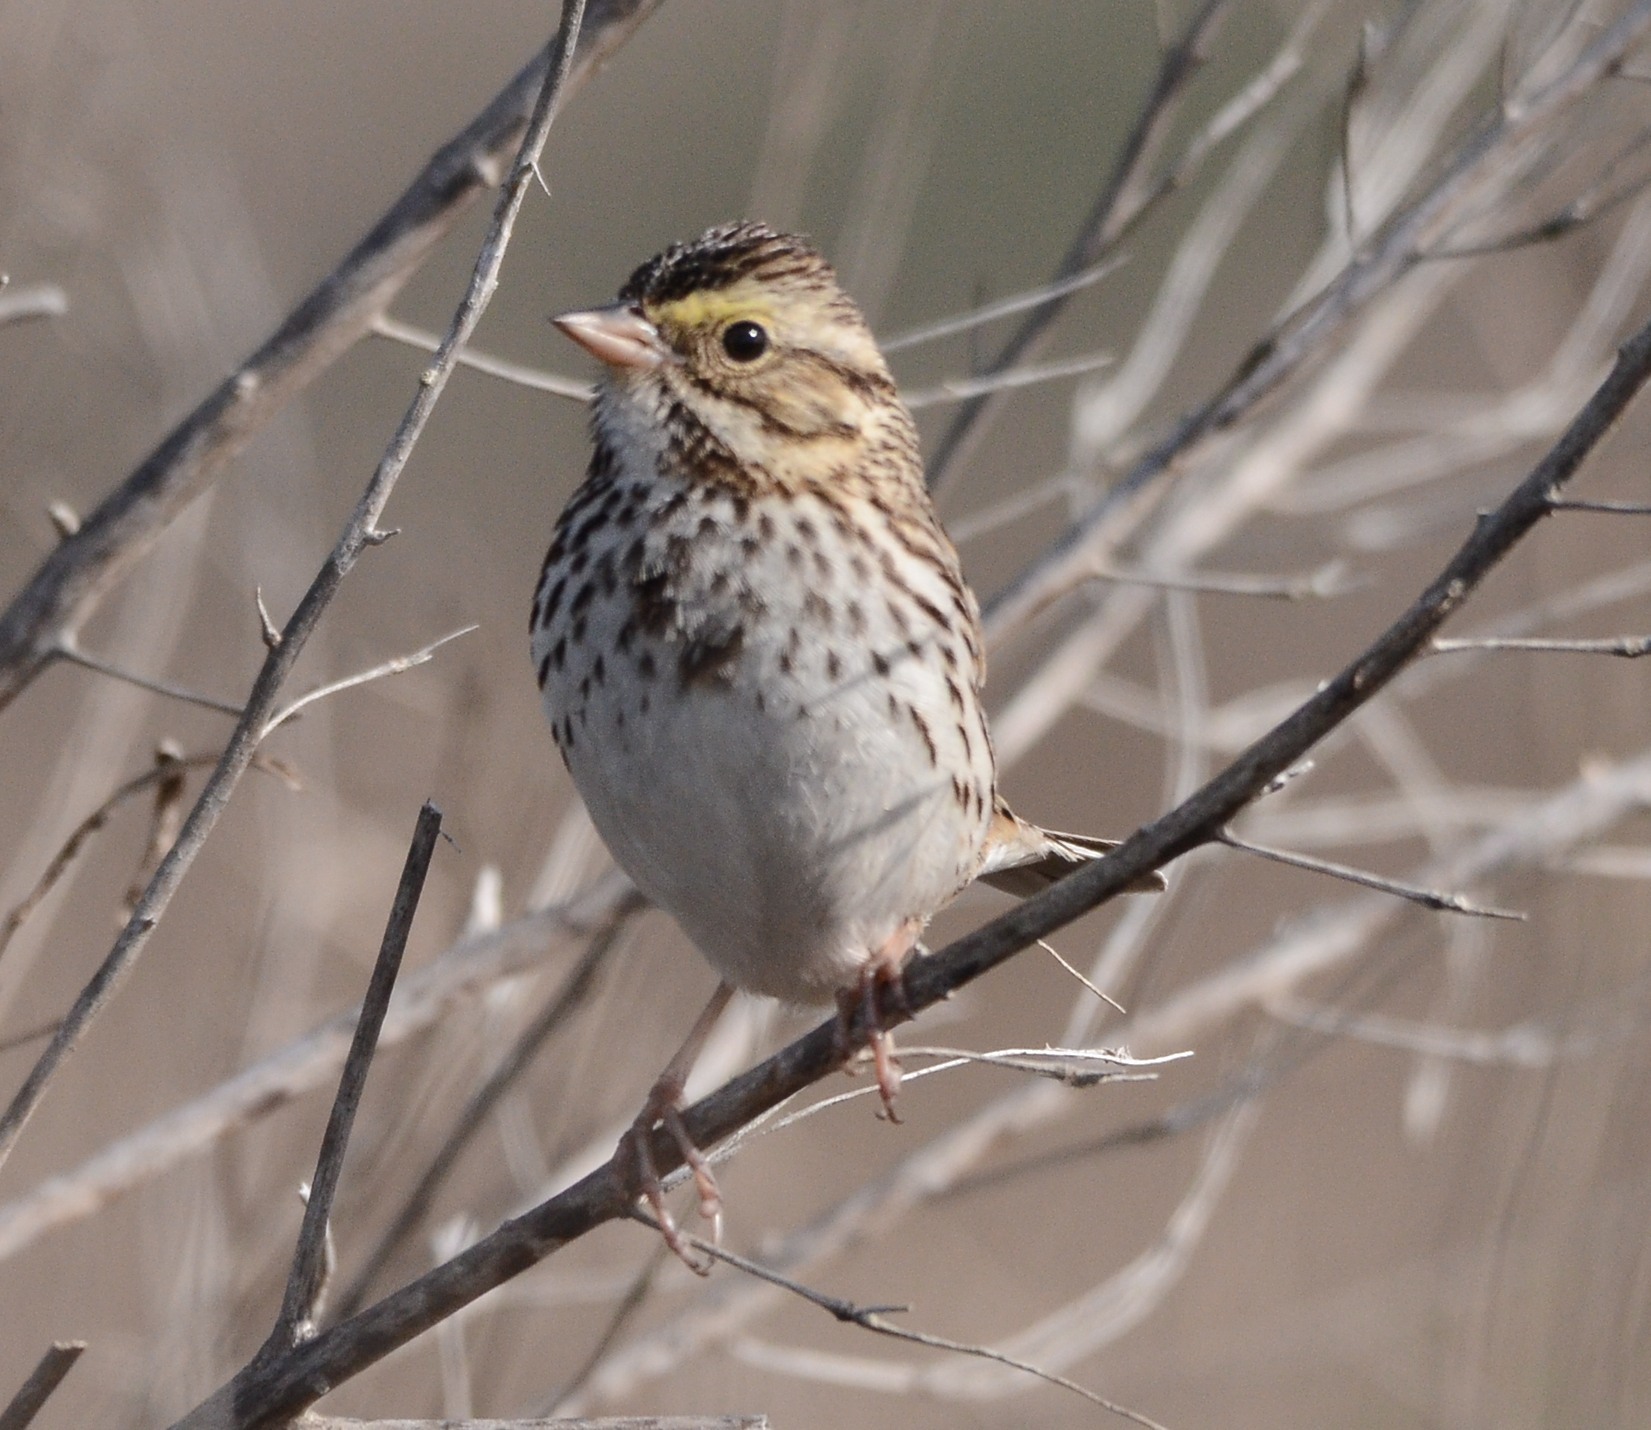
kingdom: Animalia
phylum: Chordata
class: Aves
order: Passeriformes
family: Passerellidae
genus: Passerculus
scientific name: Passerculus sandwichensis
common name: Savannah sparrow
